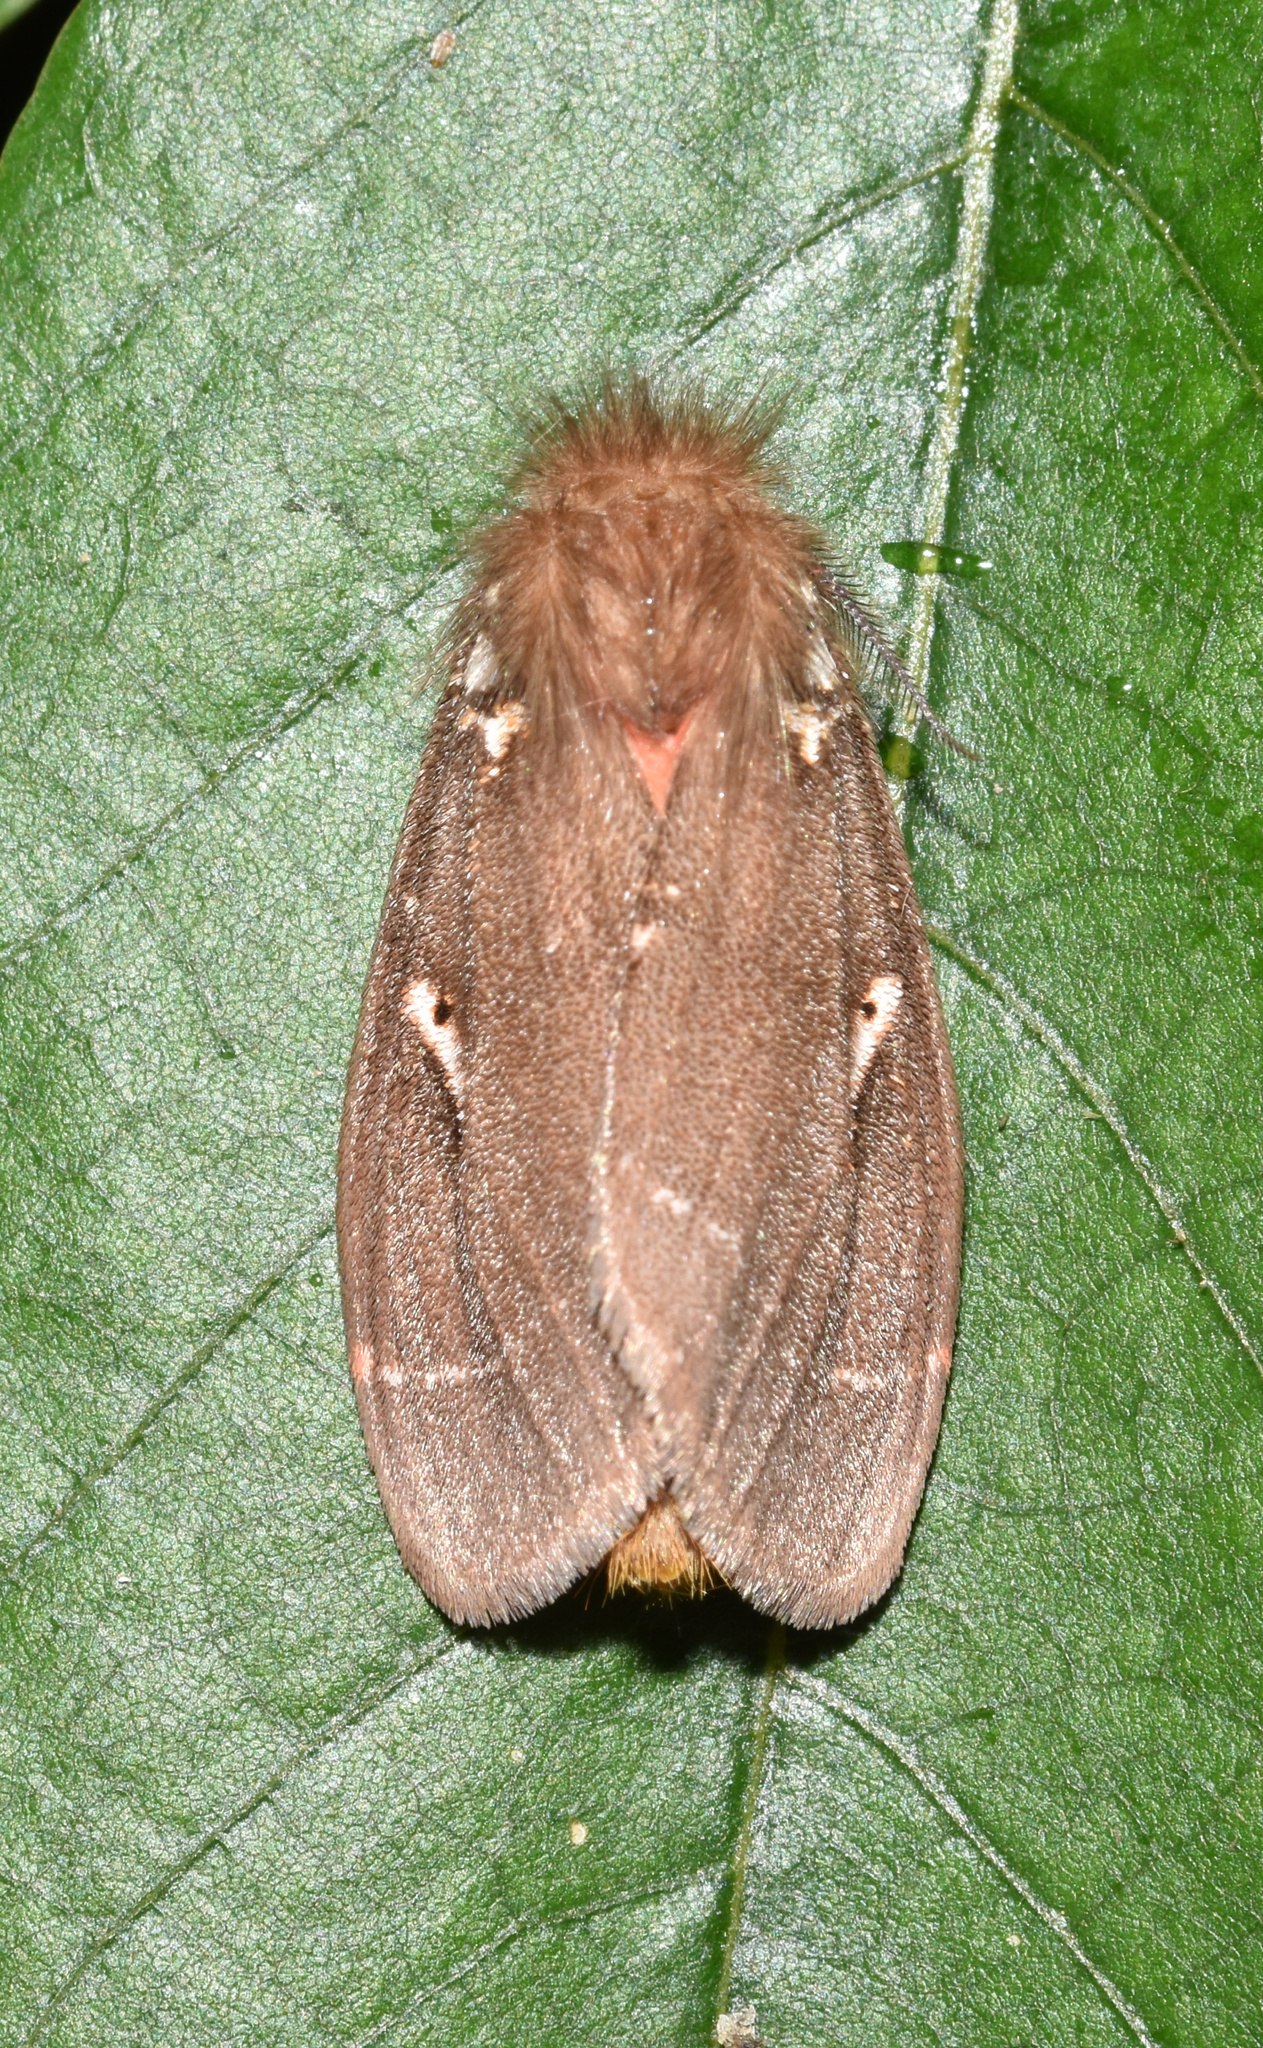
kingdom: Animalia
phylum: Arthropoda
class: Insecta
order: Lepidoptera
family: Erebidae
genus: Lymantria
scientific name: Lymantria Morasa modesta
